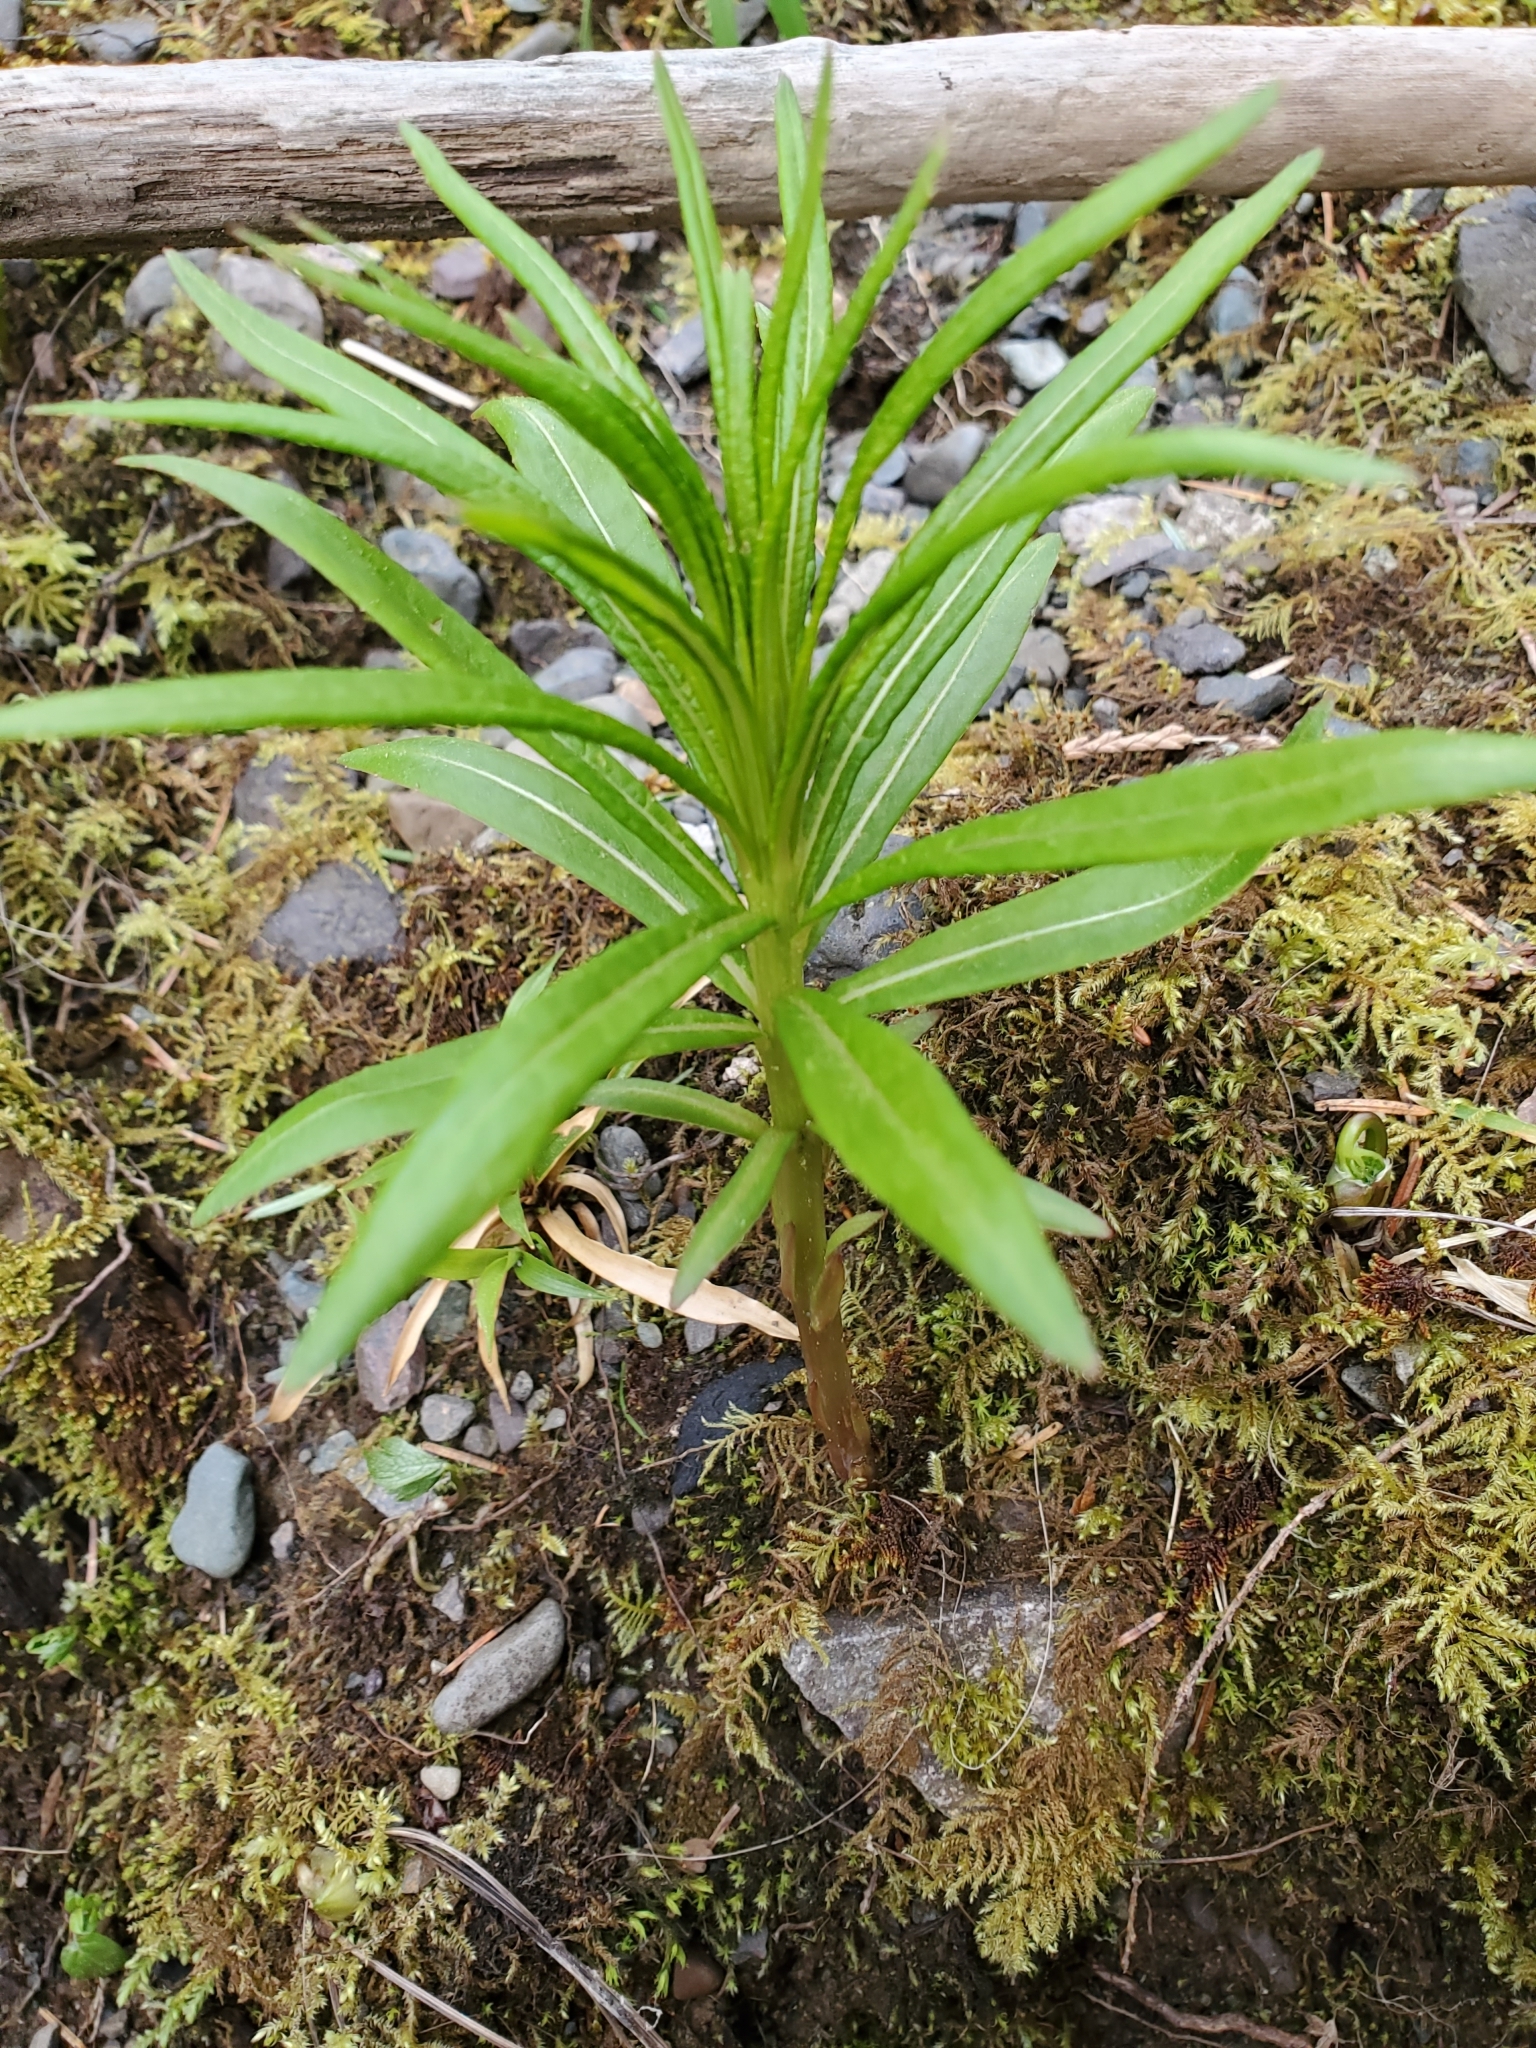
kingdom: Plantae
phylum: Tracheophyta
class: Magnoliopsida
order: Myrtales
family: Onagraceae
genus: Chamaenerion
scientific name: Chamaenerion angustifolium
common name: Fireweed
